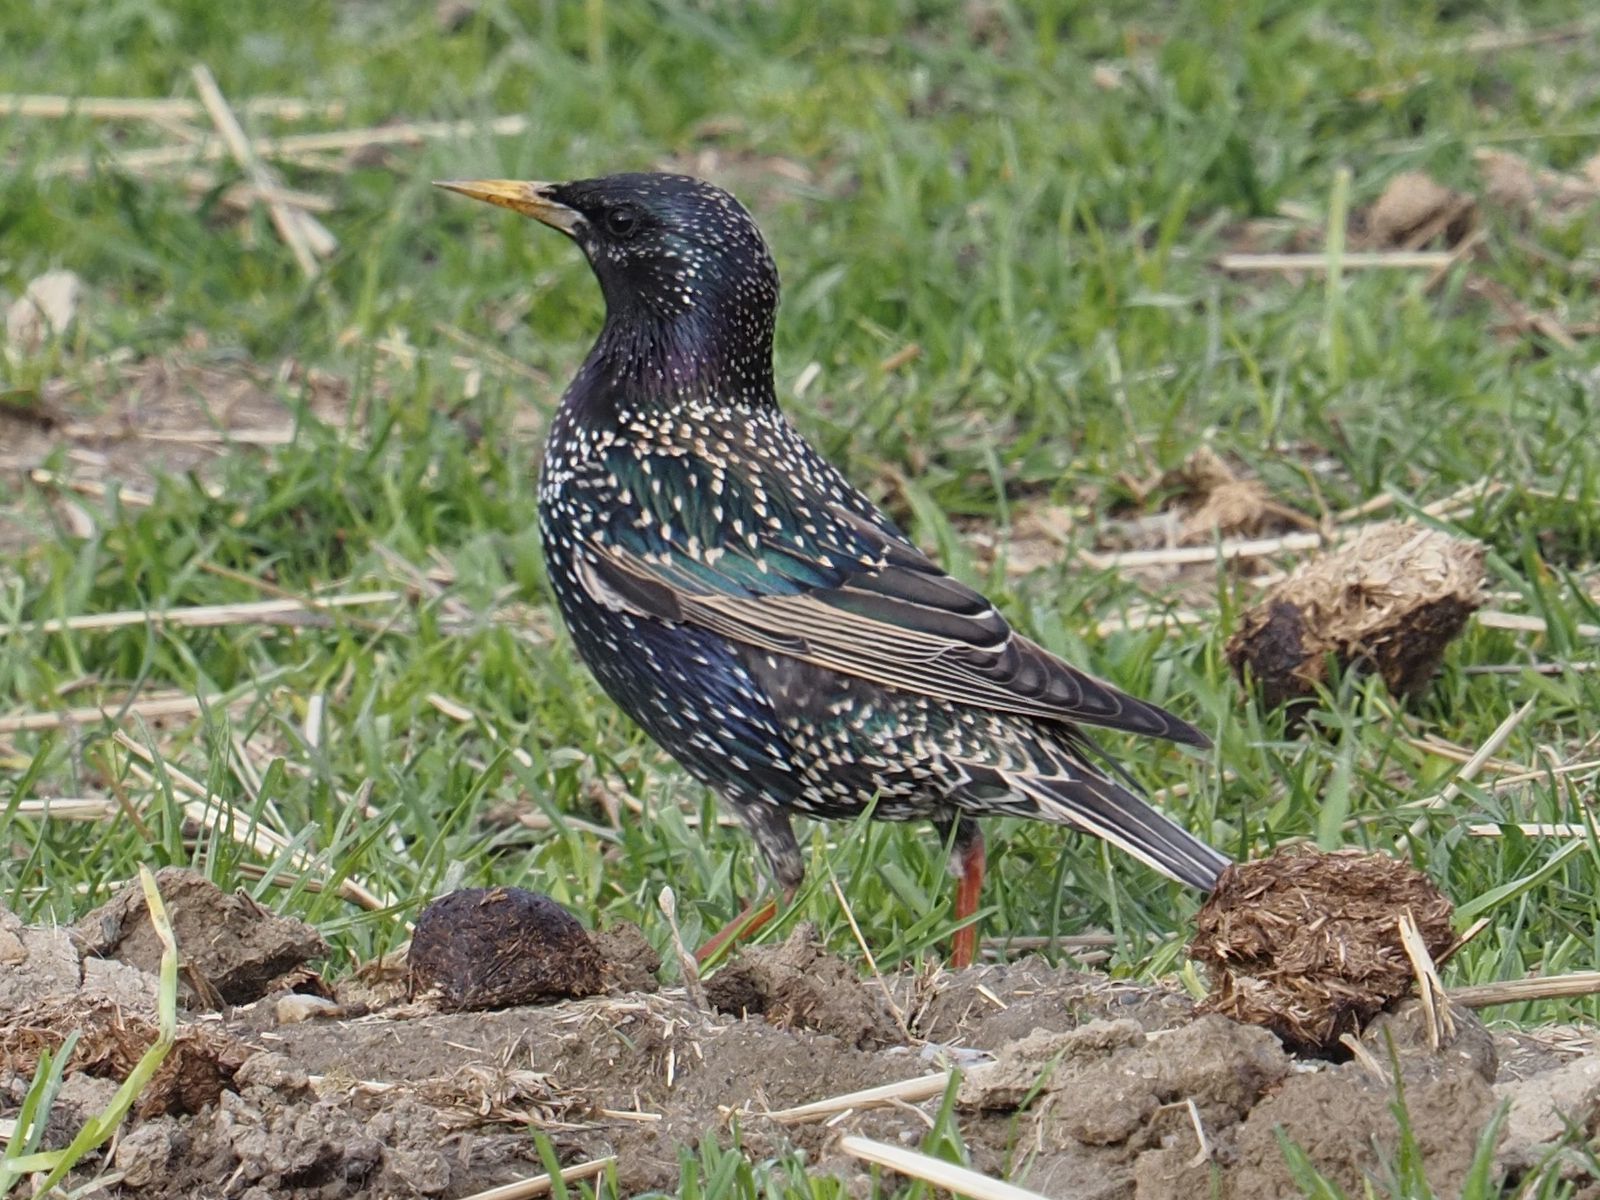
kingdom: Animalia
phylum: Chordata
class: Aves
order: Passeriformes
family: Sturnidae
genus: Sturnus
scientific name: Sturnus vulgaris
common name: Common starling
